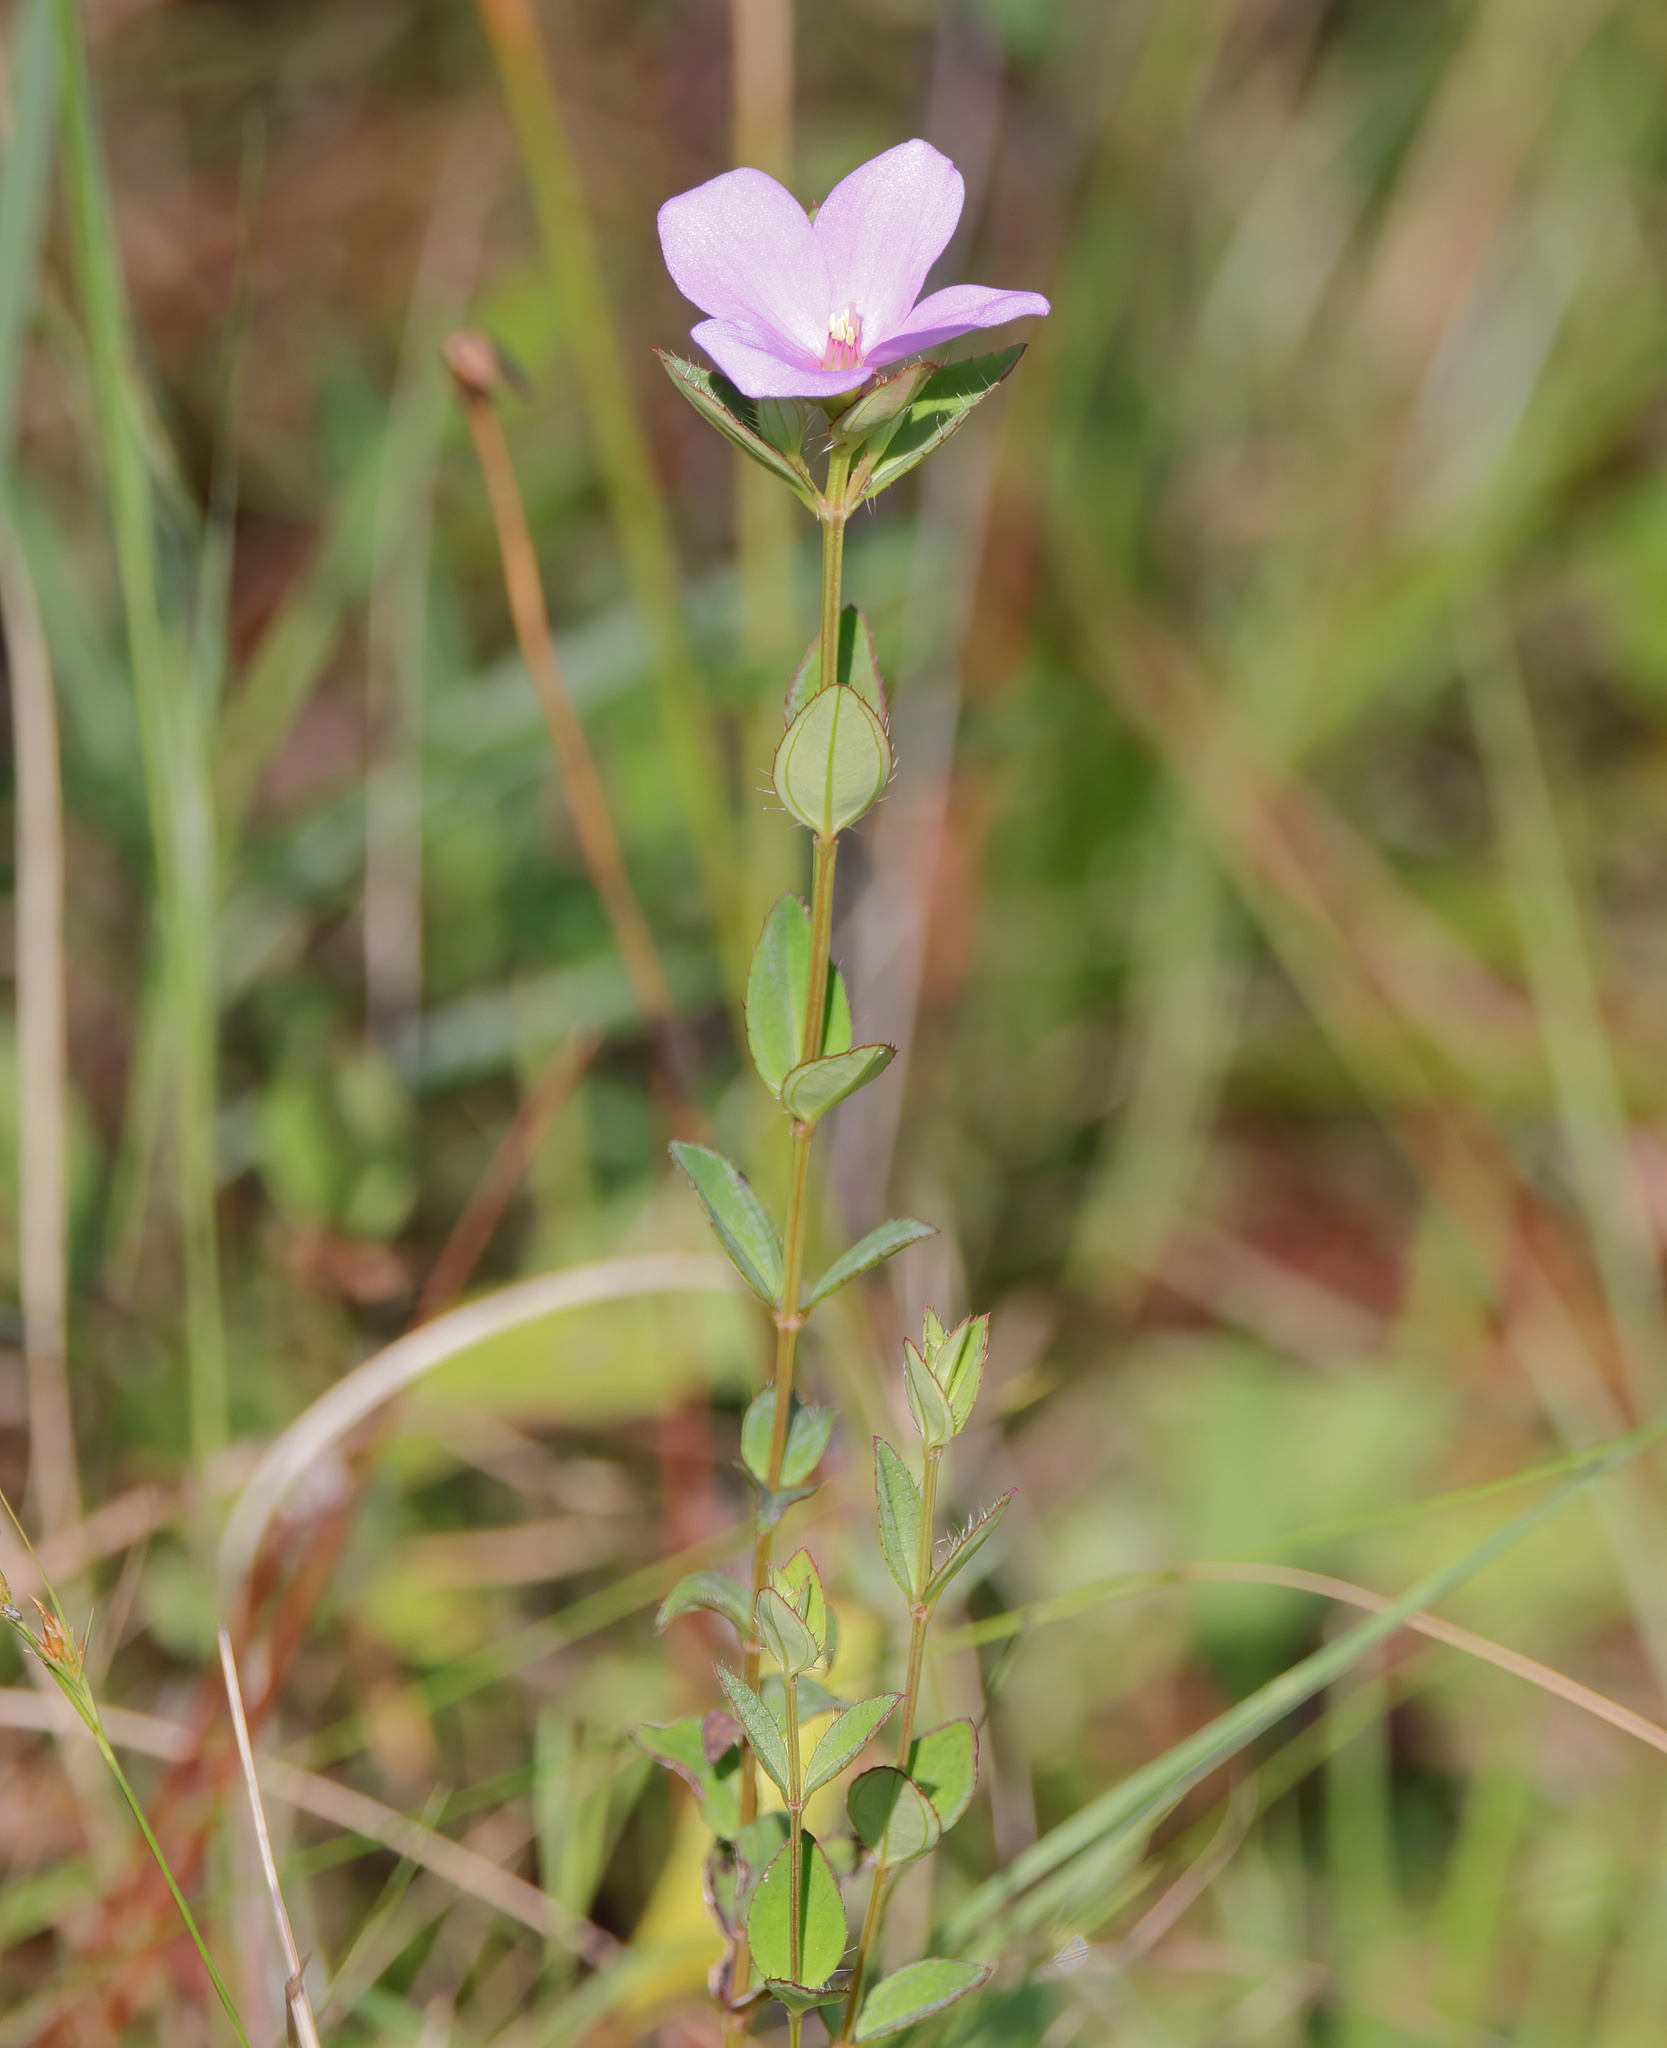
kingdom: Plantae
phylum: Tracheophyta
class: Magnoliopsida
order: Myrtales
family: Melastomataceae
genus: Rhexia
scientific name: Rhexia petiolata
